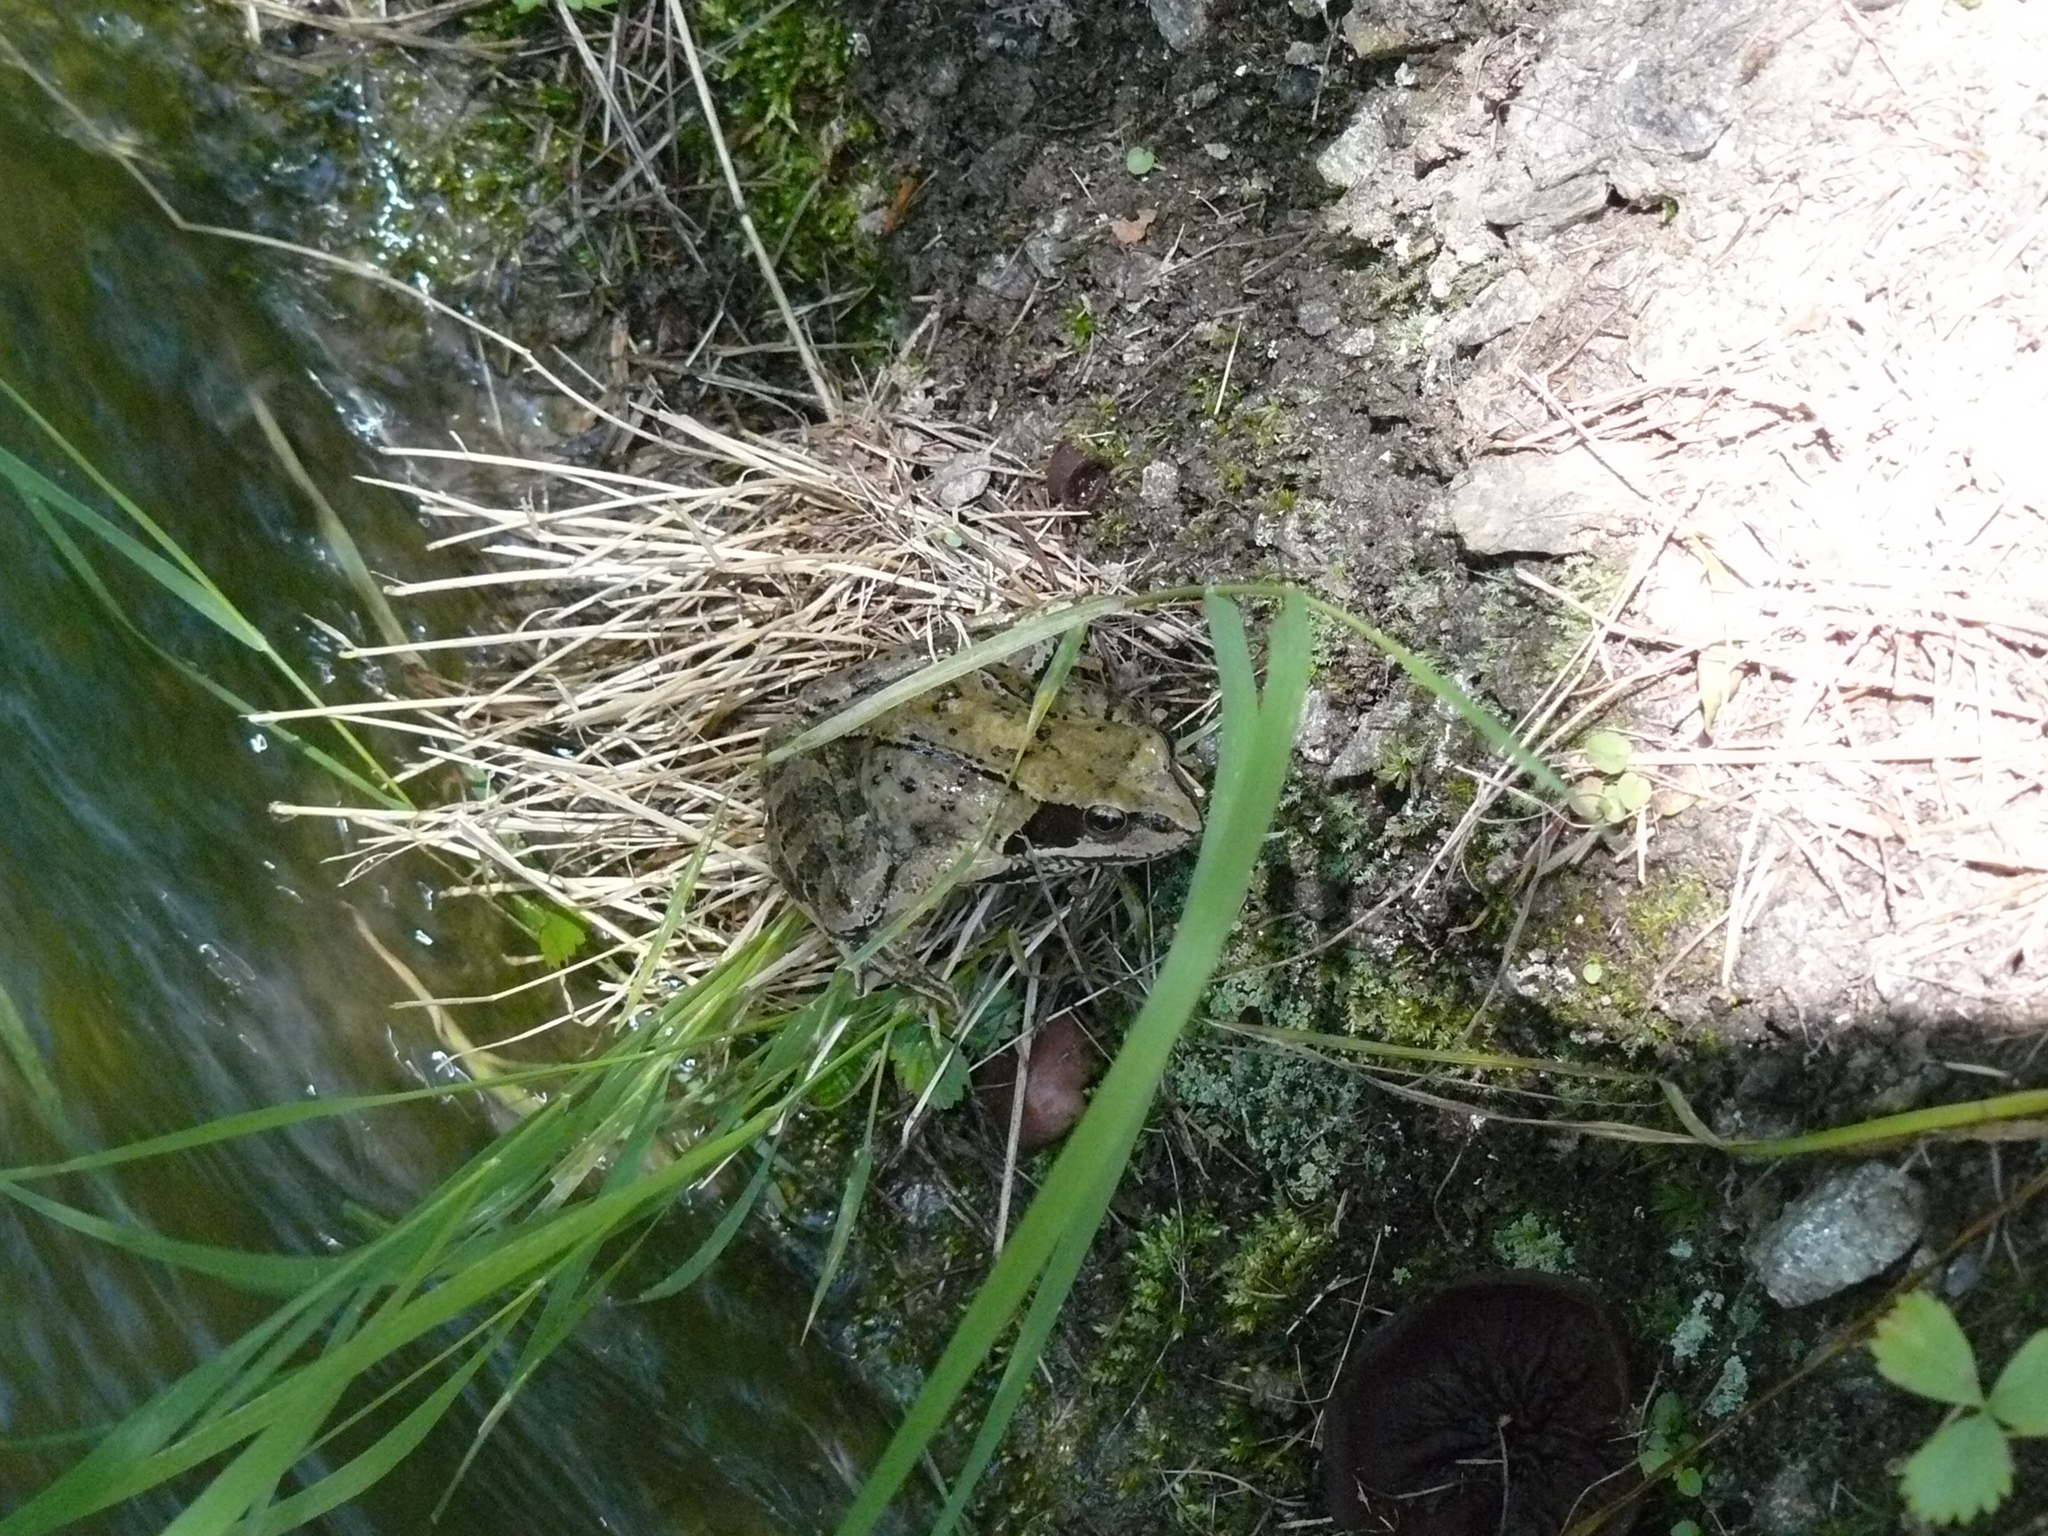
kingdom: Animalia
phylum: Chordata
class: Amphibia
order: Anura
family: Ranidae
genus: Rana
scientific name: Rana temporaria
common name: Common frog
